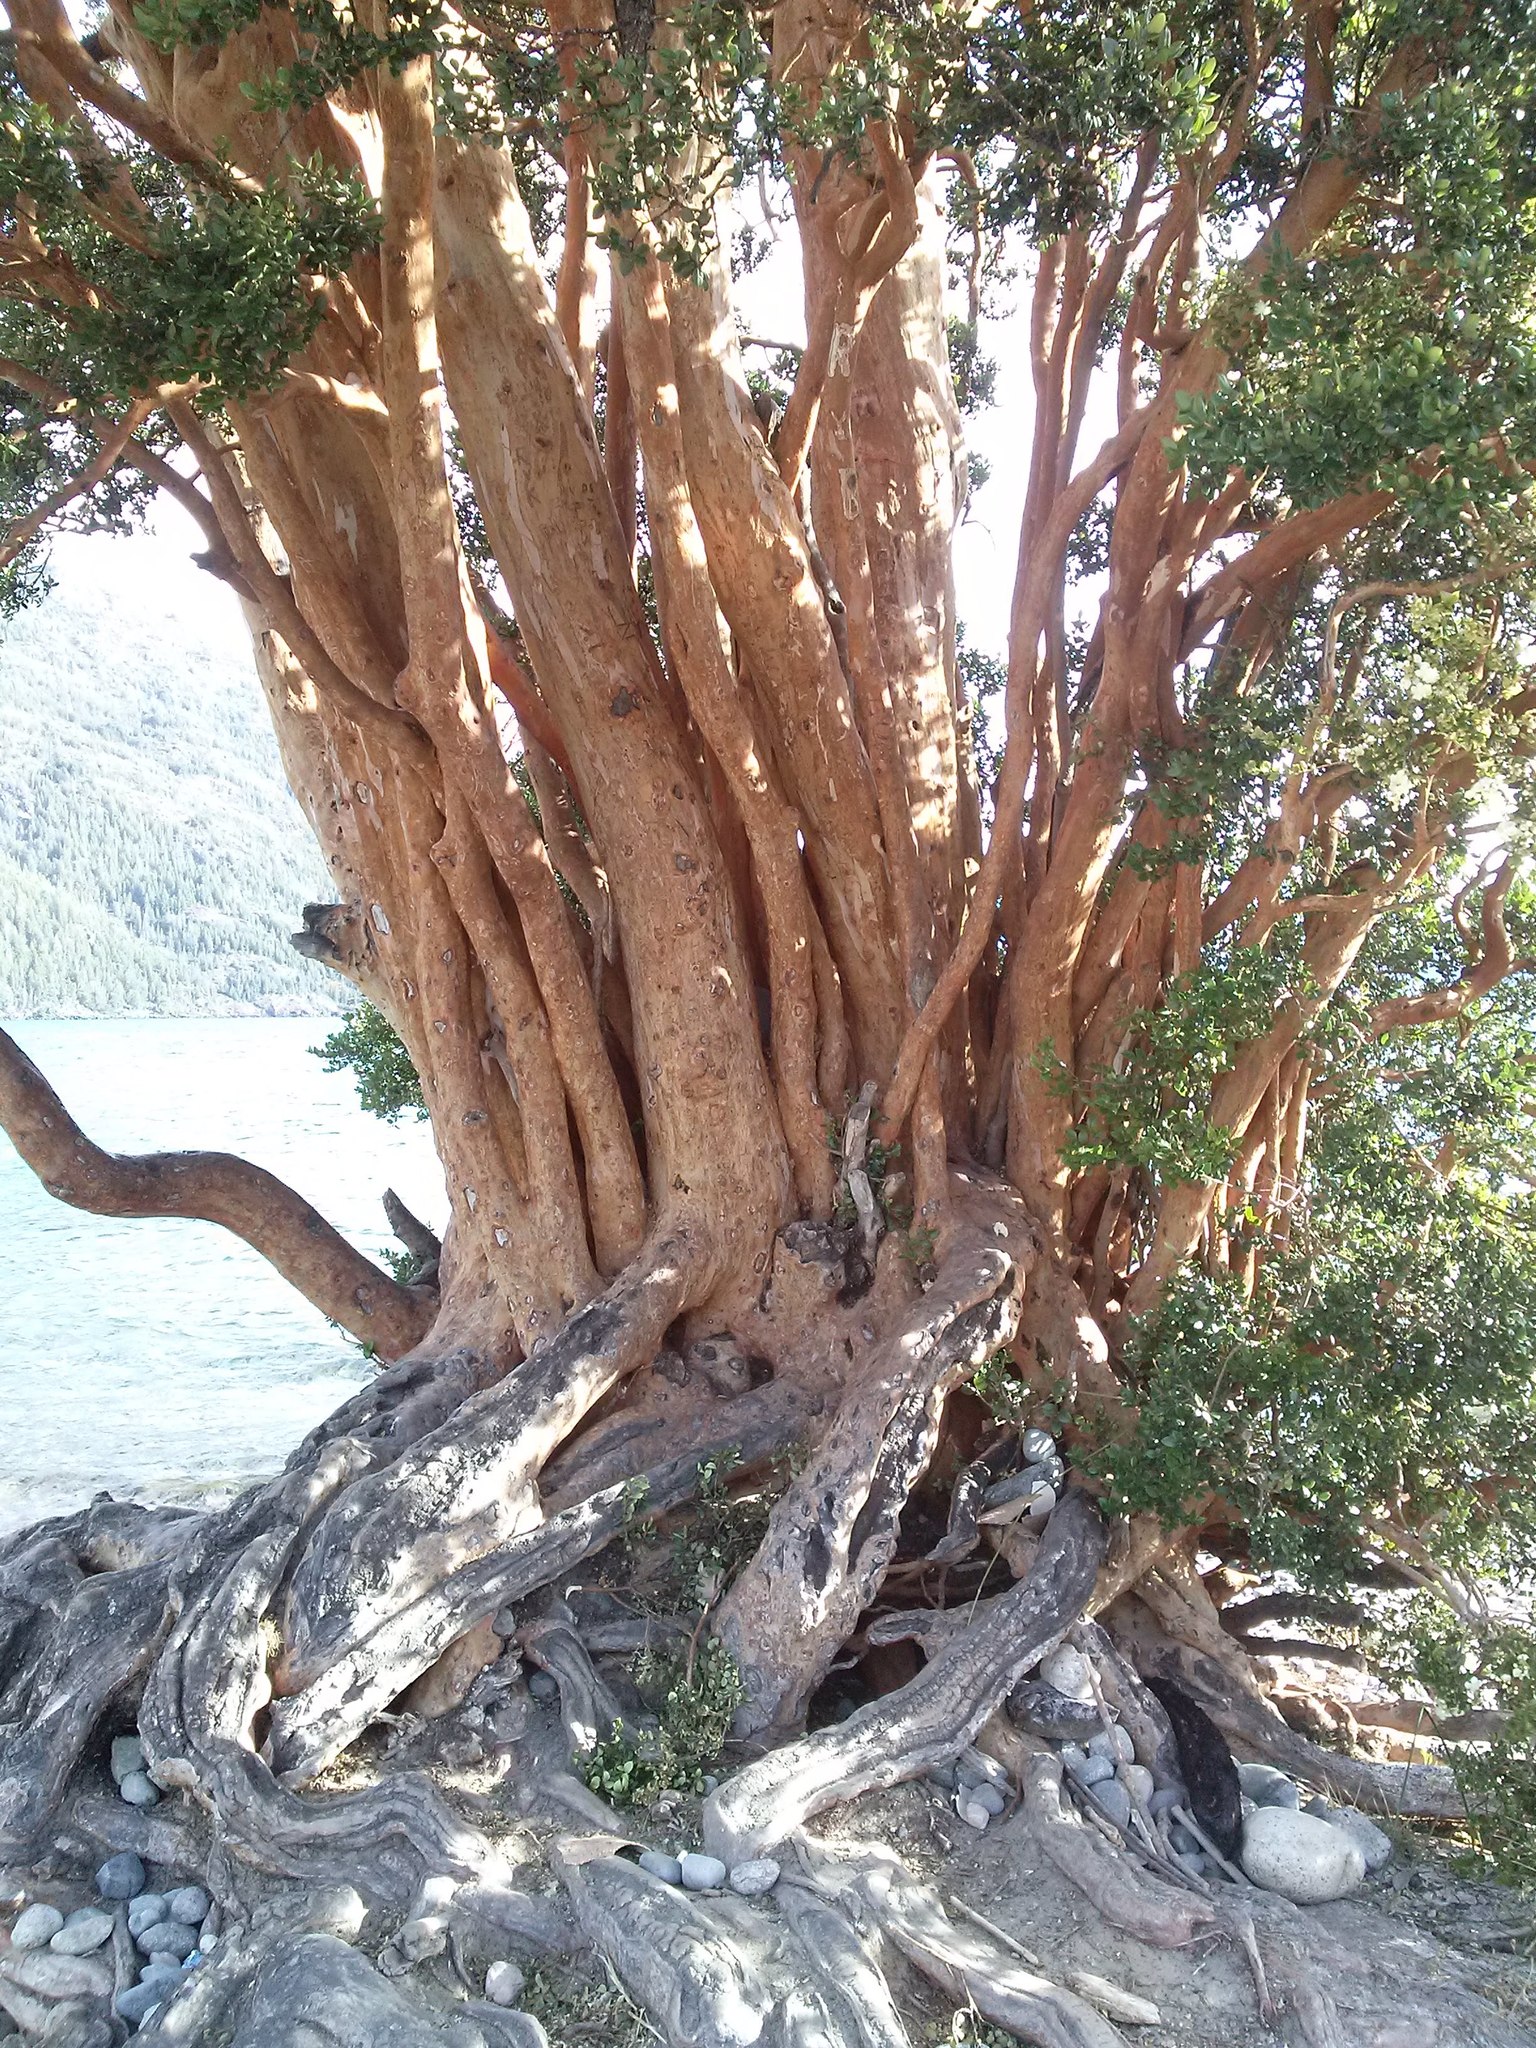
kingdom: Plantae
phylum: Tracheophyta
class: Magnoliopsida
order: Myrtales
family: Myrtaceae
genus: Luma
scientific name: Luma apiculata
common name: Chilean myrtle
